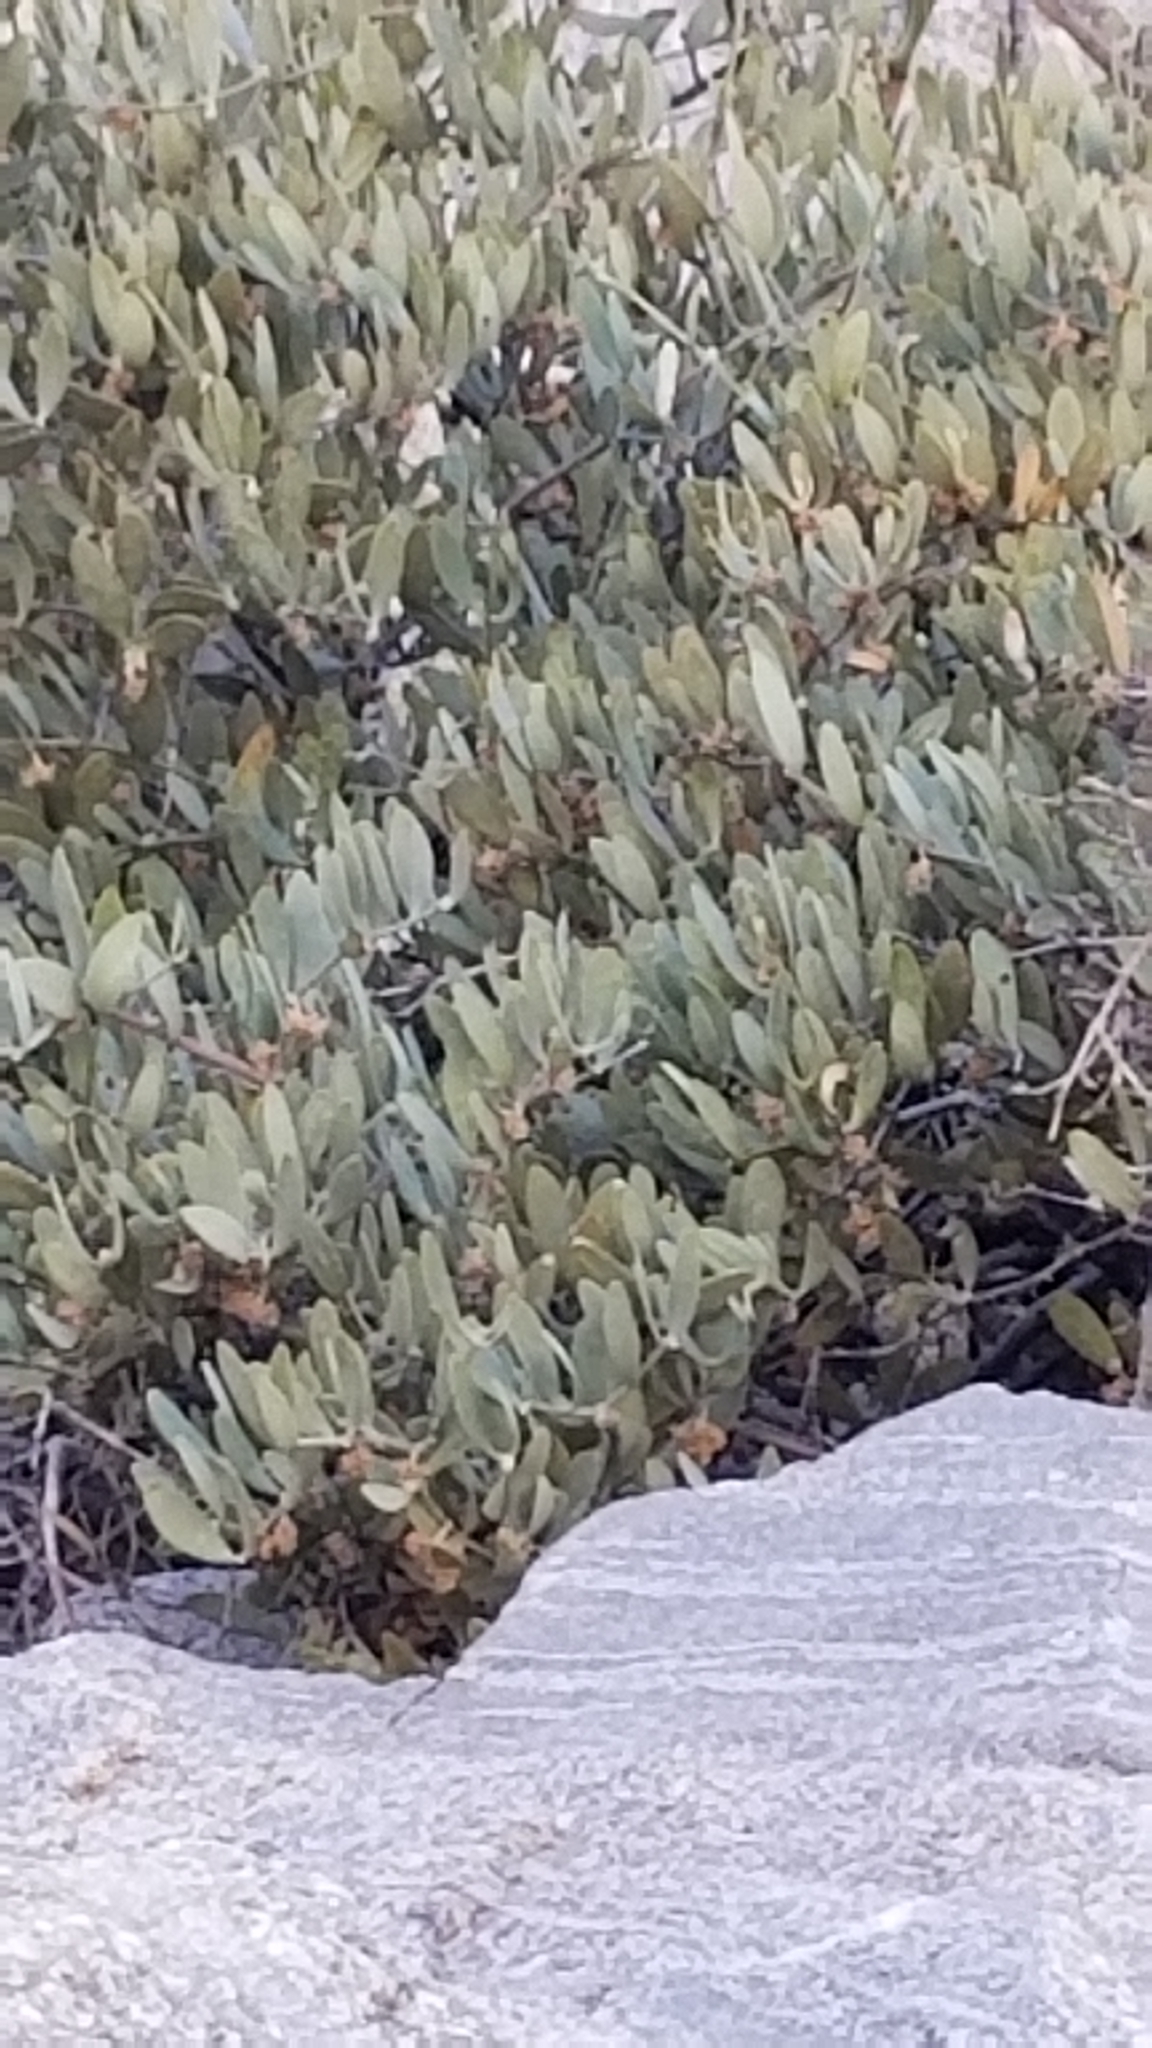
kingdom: Plantae
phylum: Tracheophyta
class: Magnoliopsida
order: Caryophyllales
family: Simmondsiaceae
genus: Simmondsia
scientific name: Simmondsia chinensis
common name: Jojoba
